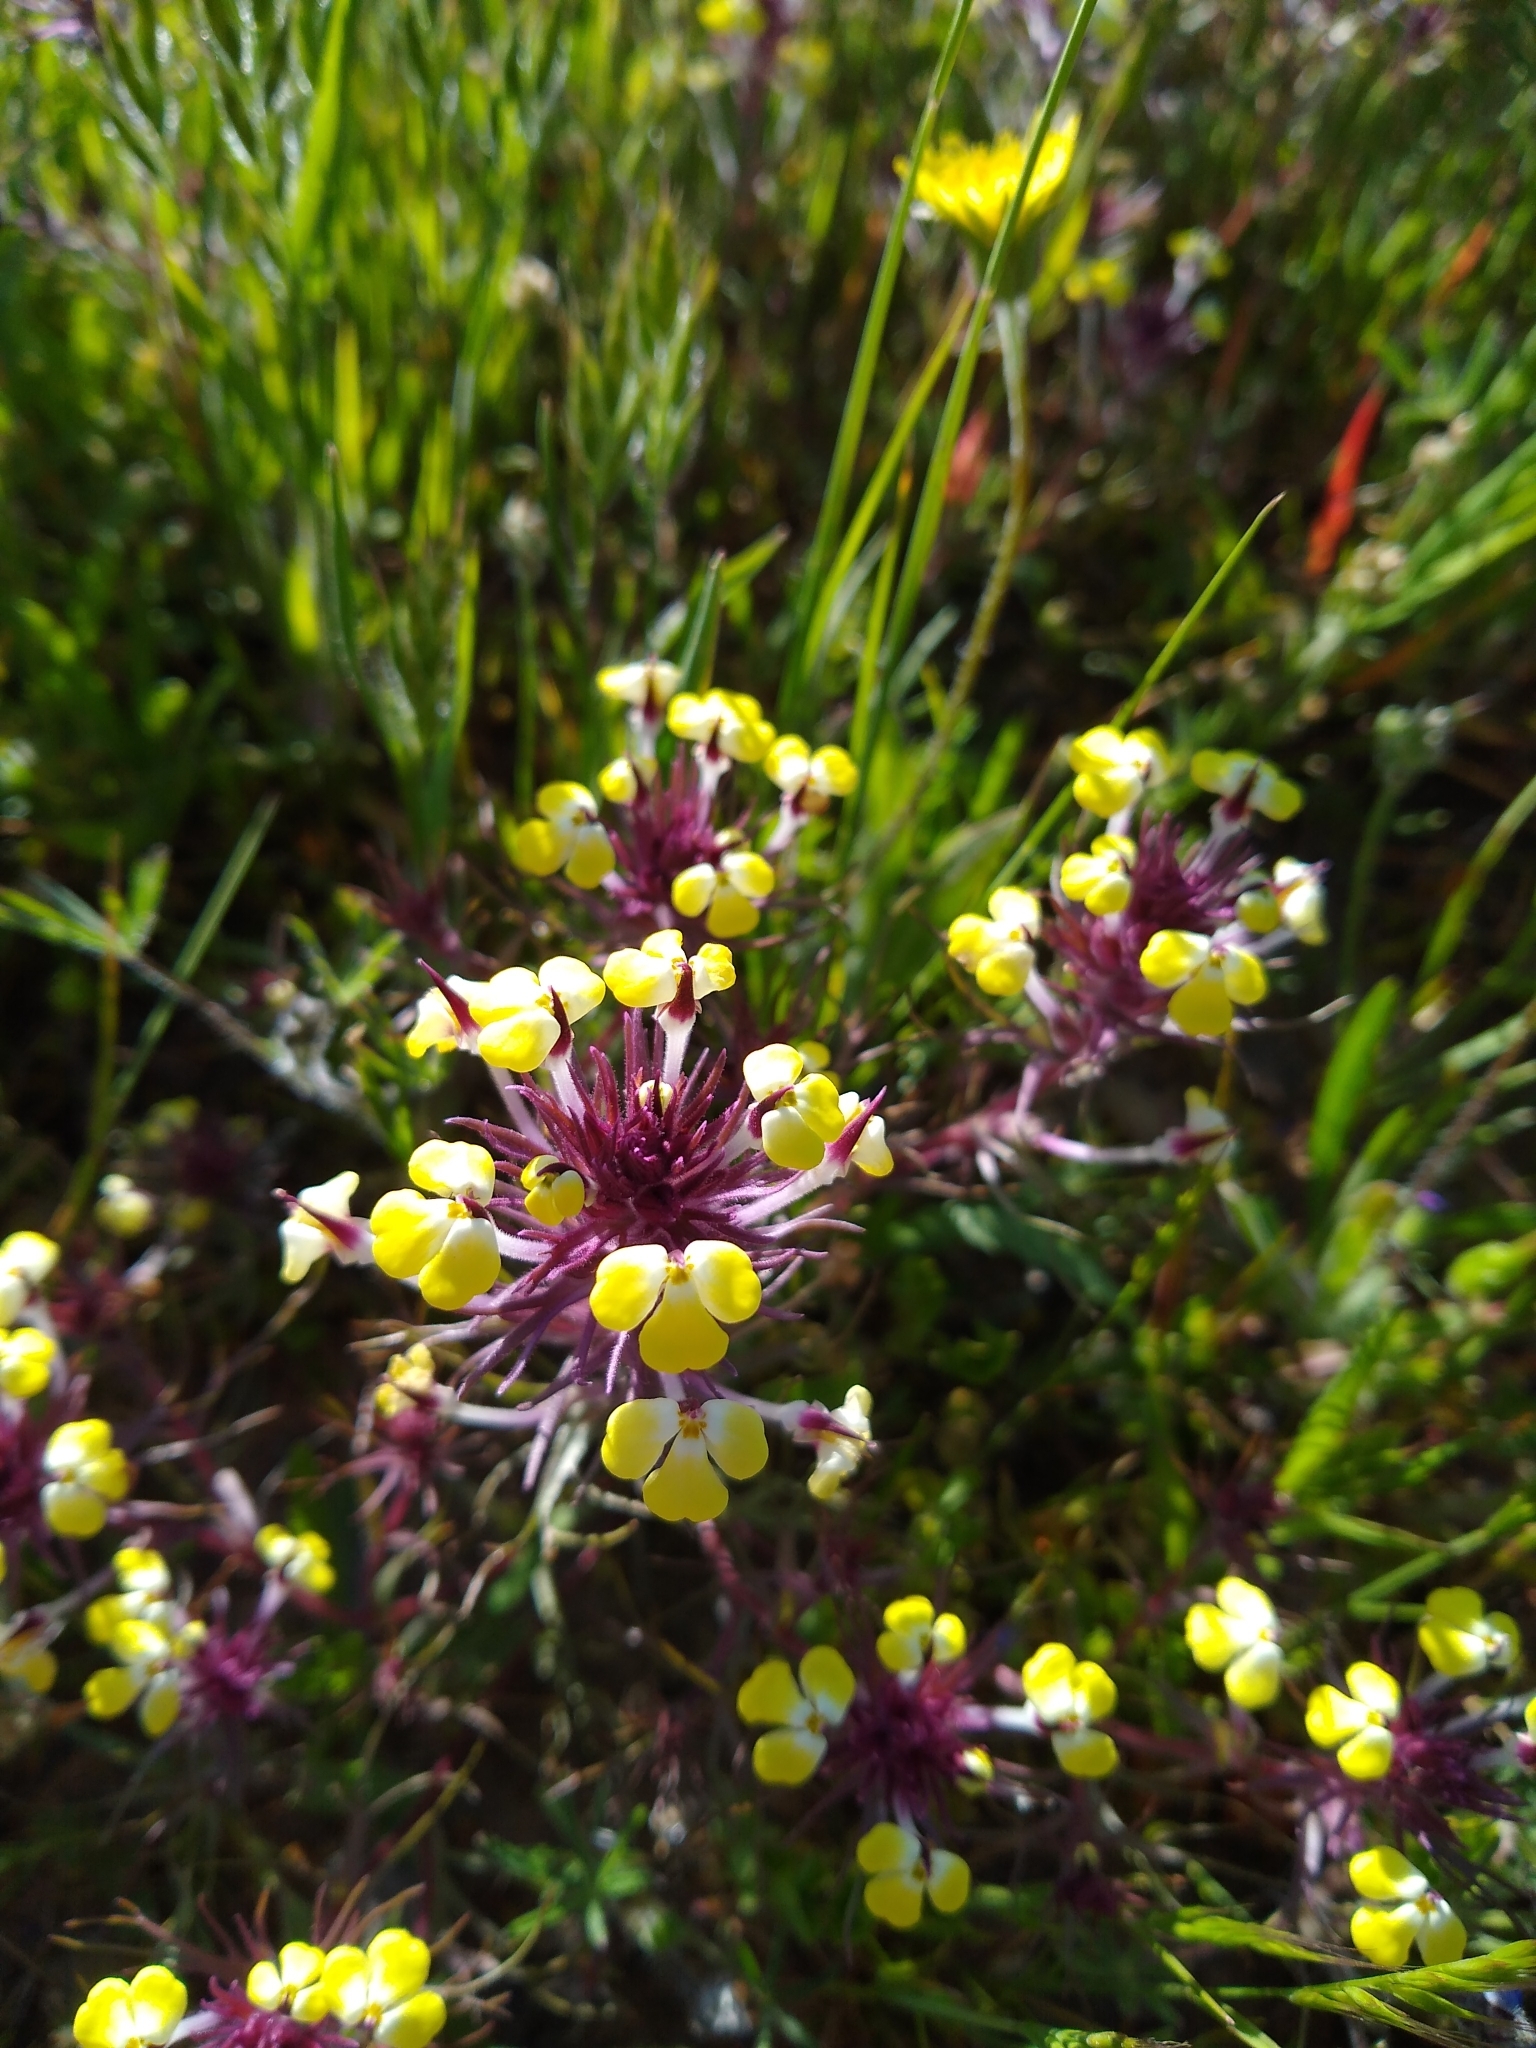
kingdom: Plantae
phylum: Tracheophyta
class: Magnoliopsida
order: Lamiales
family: Orobanchaceae
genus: Triphysaria
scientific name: Triphysaria eriantha
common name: Johnny-tuck
